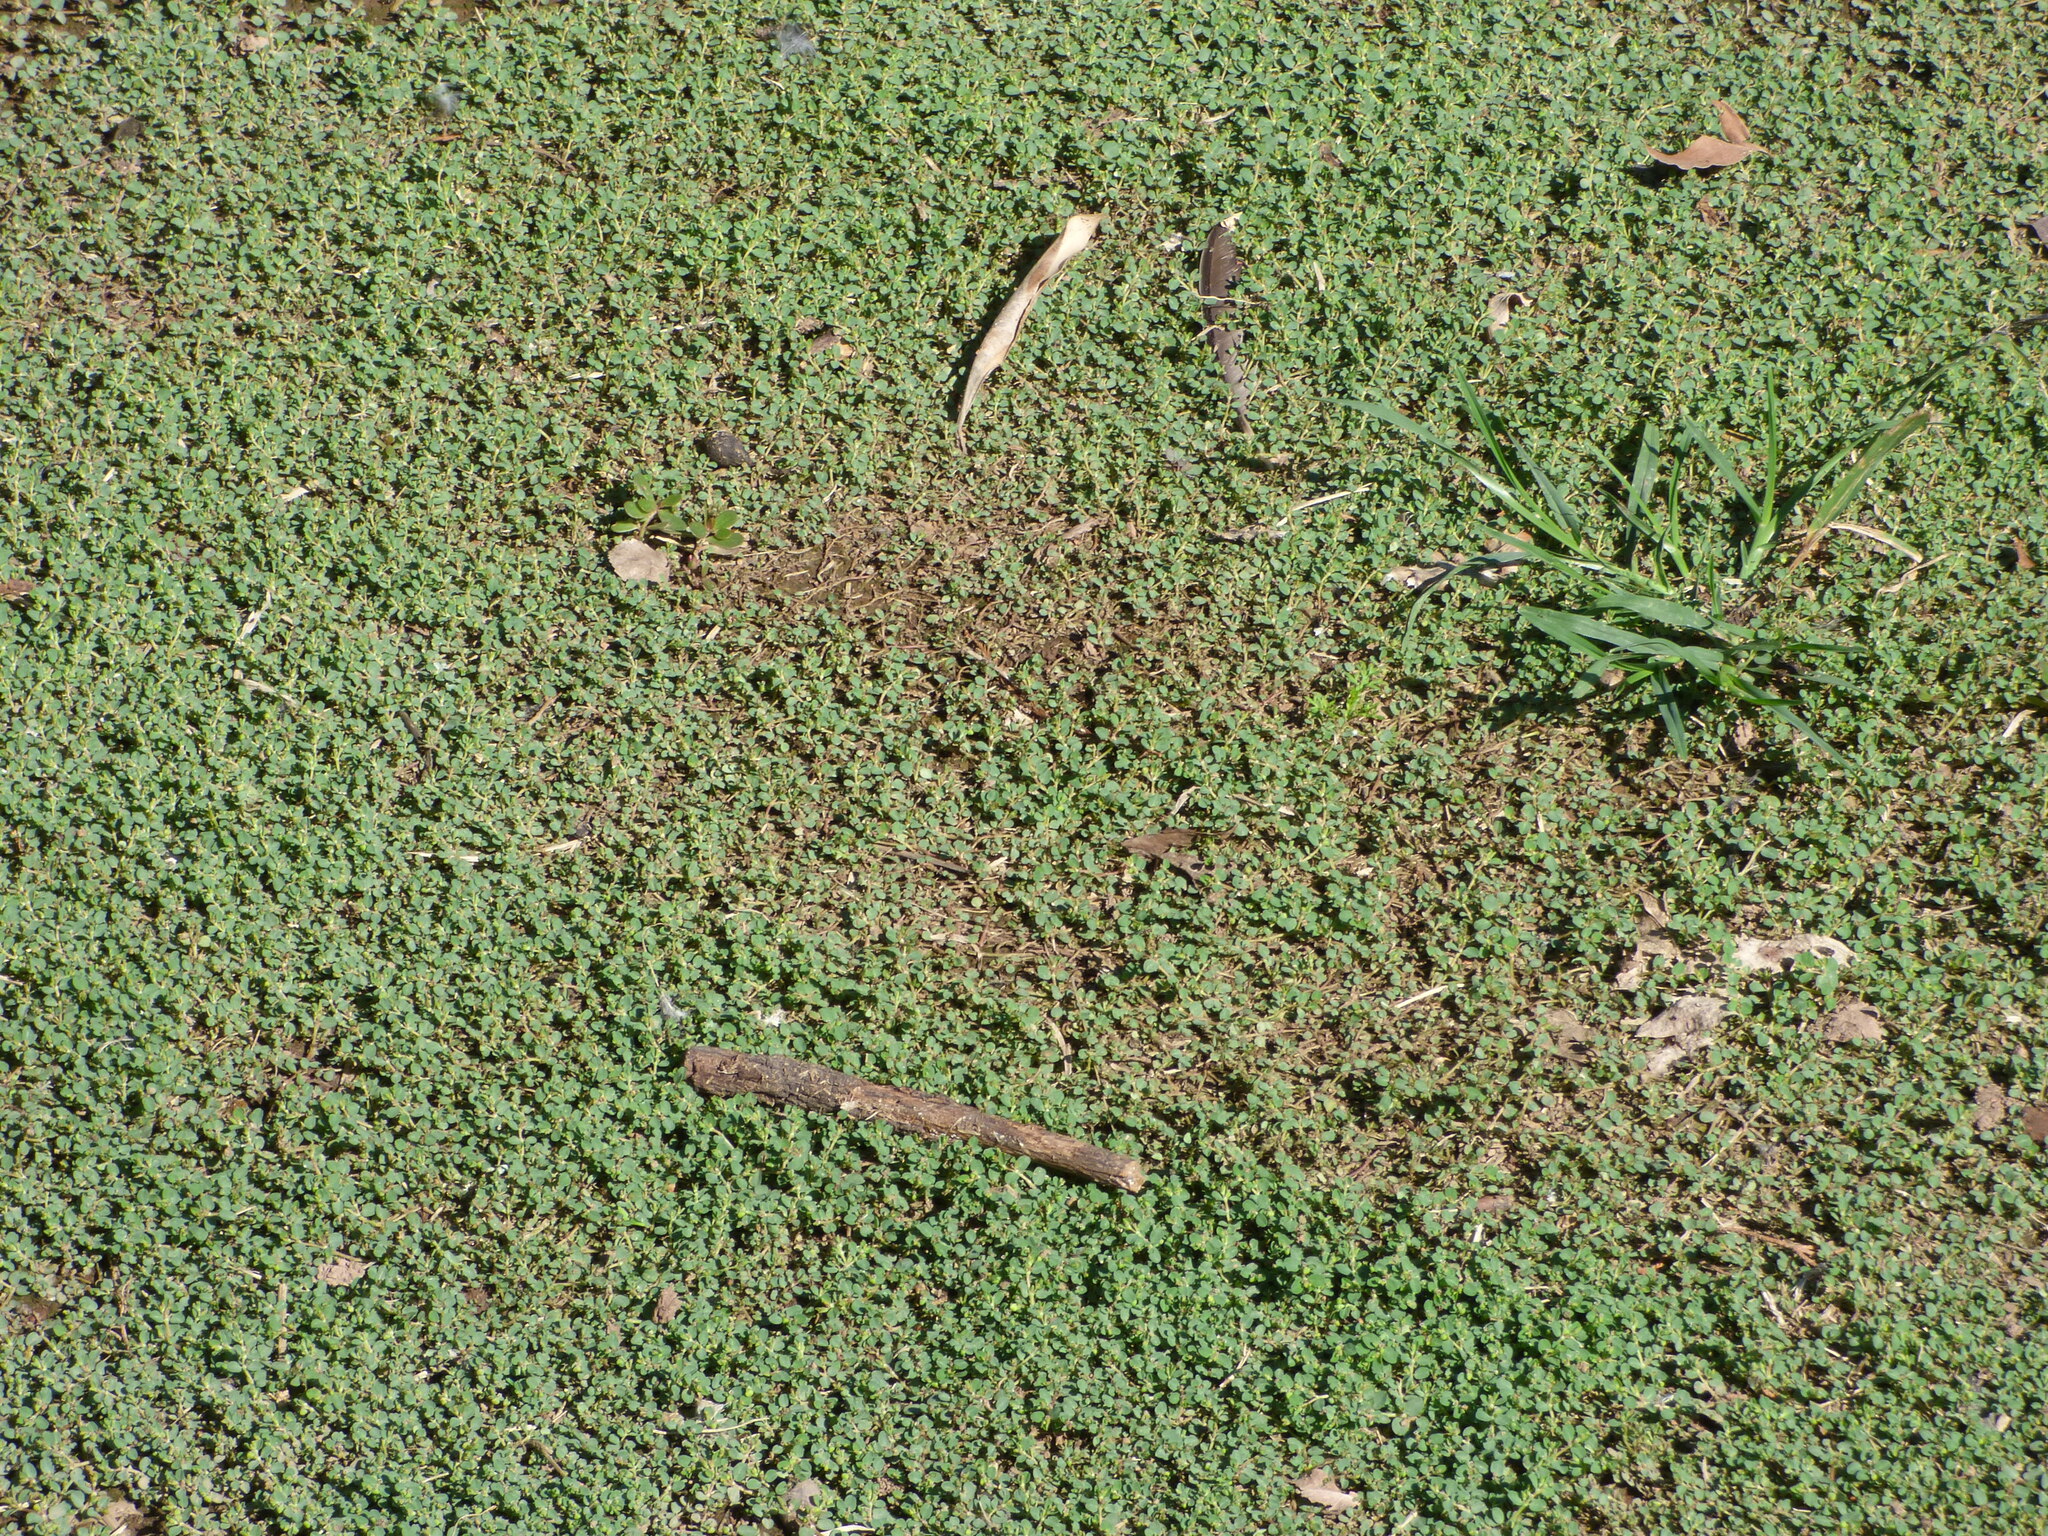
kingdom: Plantae
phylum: Tracheophyta
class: Magnoliopsida
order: Malpighiales
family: Euphorbiaceae
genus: Euphorbia
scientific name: Euphorbia serpens
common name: Matted sandmat
